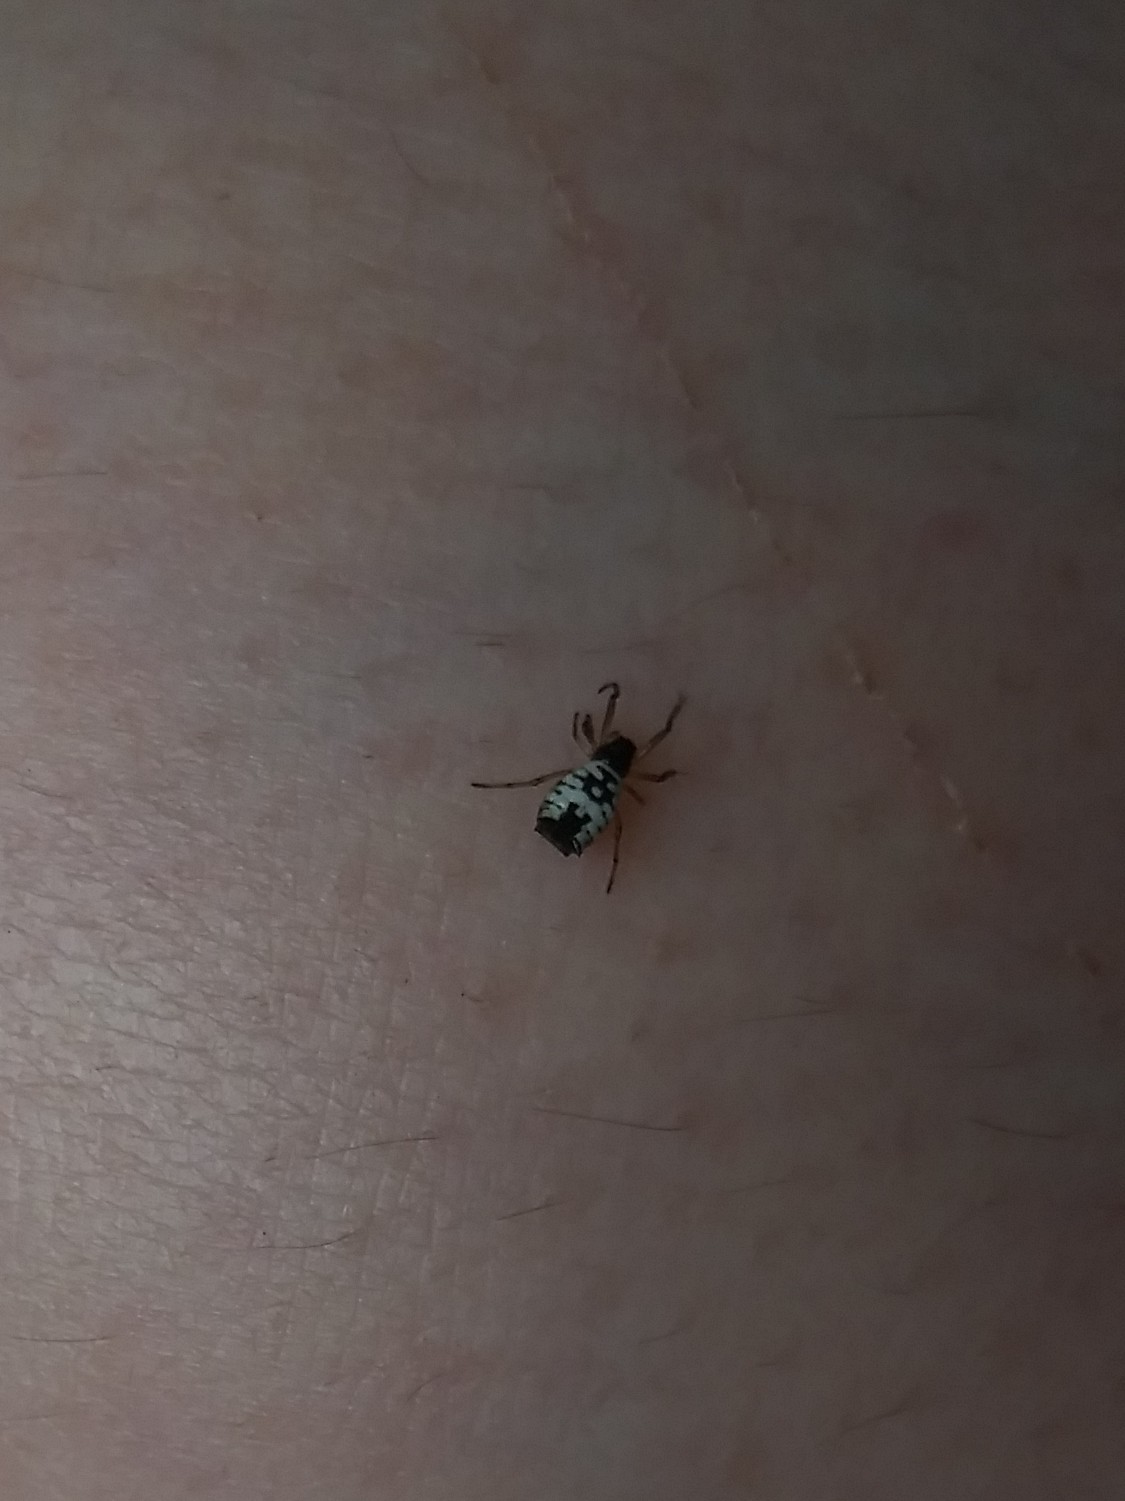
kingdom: Animalia
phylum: Arthropoda
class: Arachnida
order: Araneae
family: Araneidae
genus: Micrathena
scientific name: Micrathena mitrata
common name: Orb weavers
